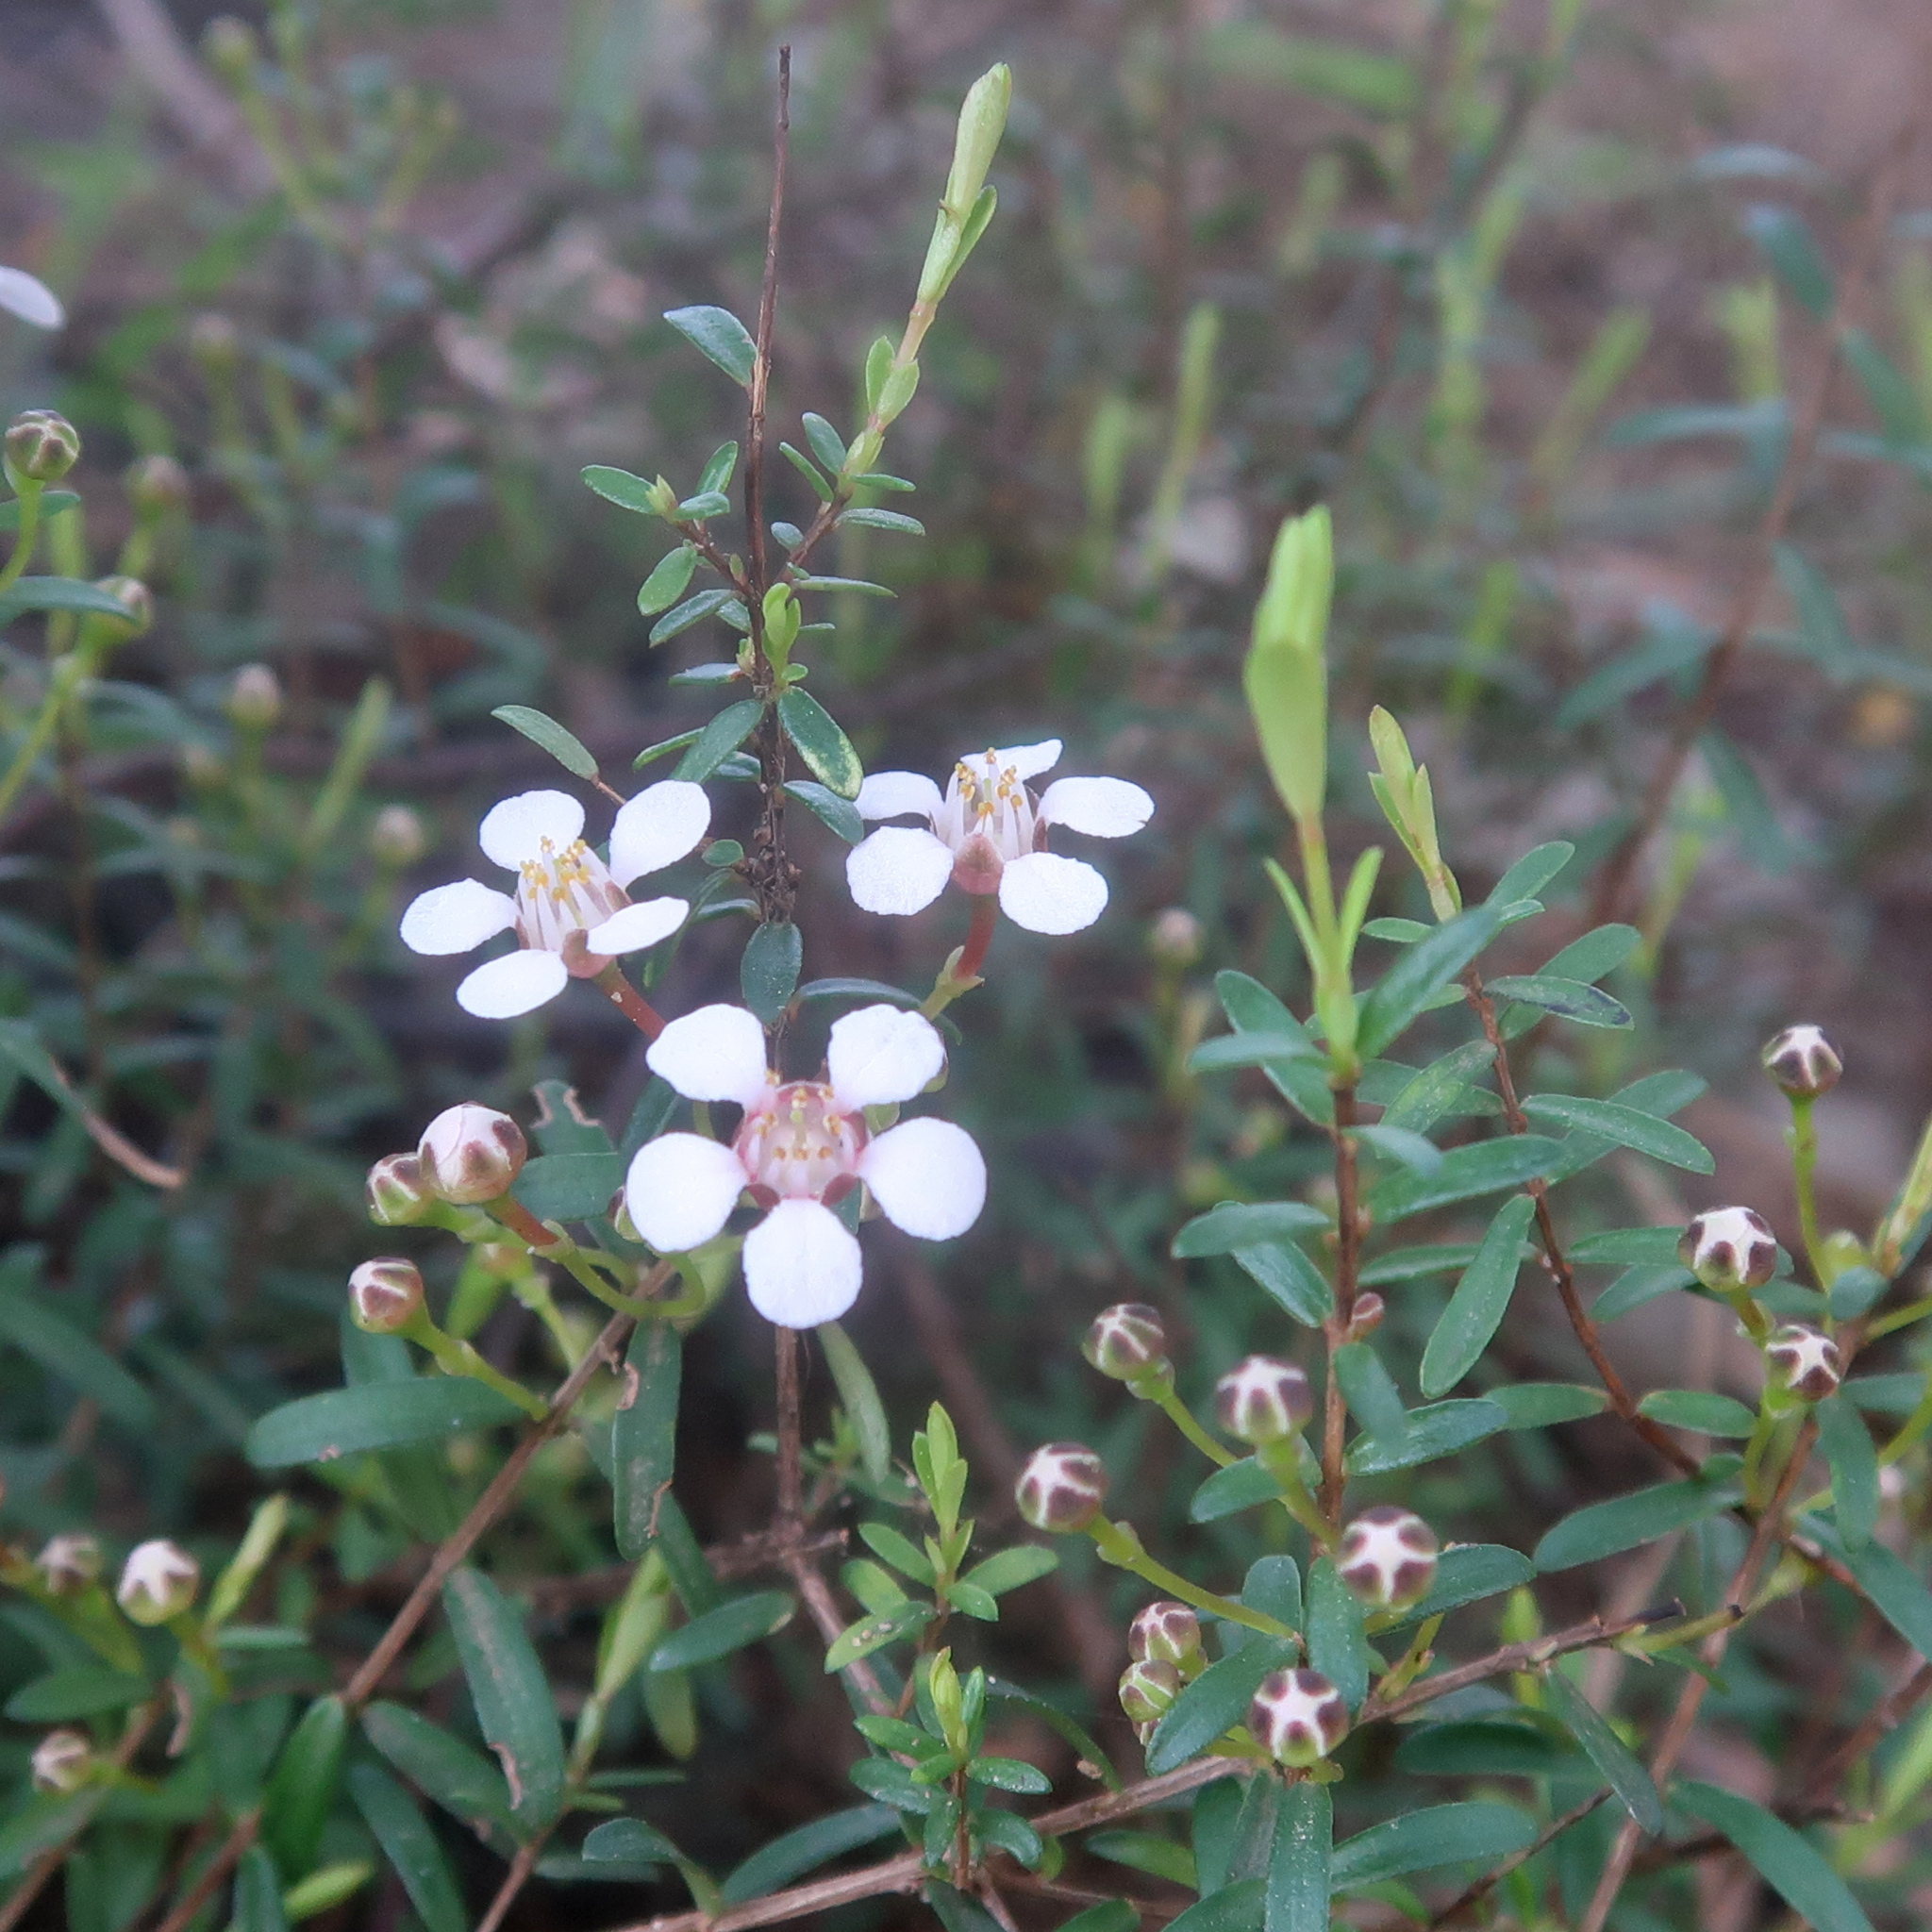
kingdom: Plantae
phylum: Tracheophyta
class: Magnoliopsida
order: Myrtales
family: Myrtaceae
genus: Euryomyrtus
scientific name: Euryomyrtus ramosissima
